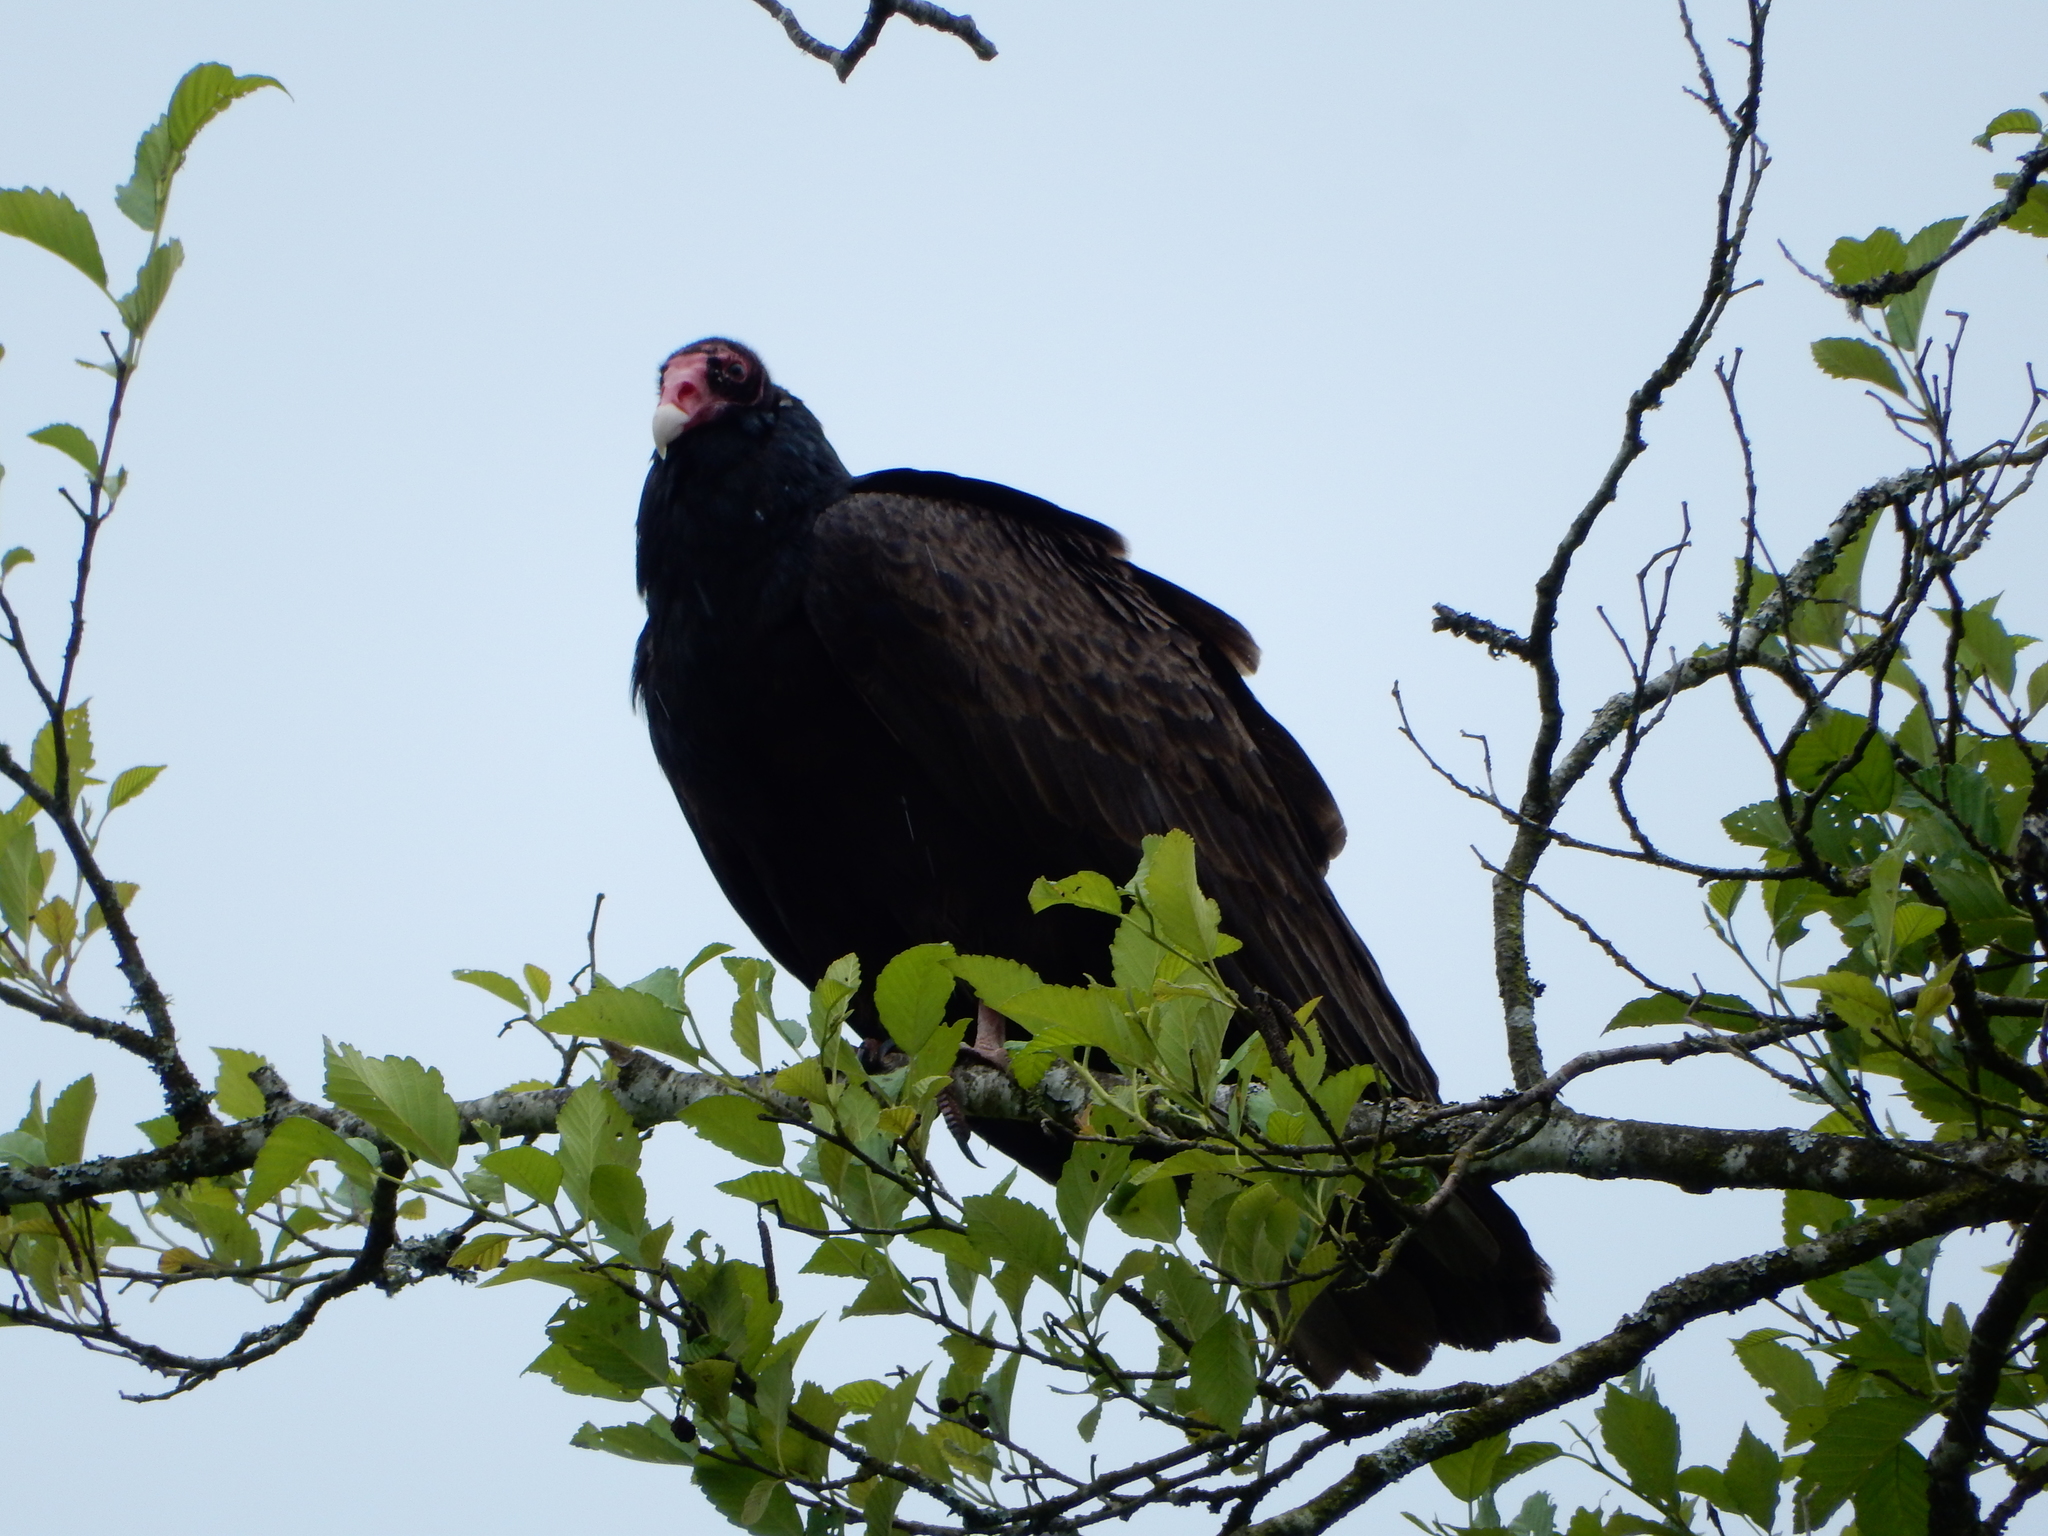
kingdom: Animalia
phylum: Chordata
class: Aves
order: Accipitriformes
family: Cathartidae
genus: Cathartes
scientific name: Cathartes aura
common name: Turkey vulture
